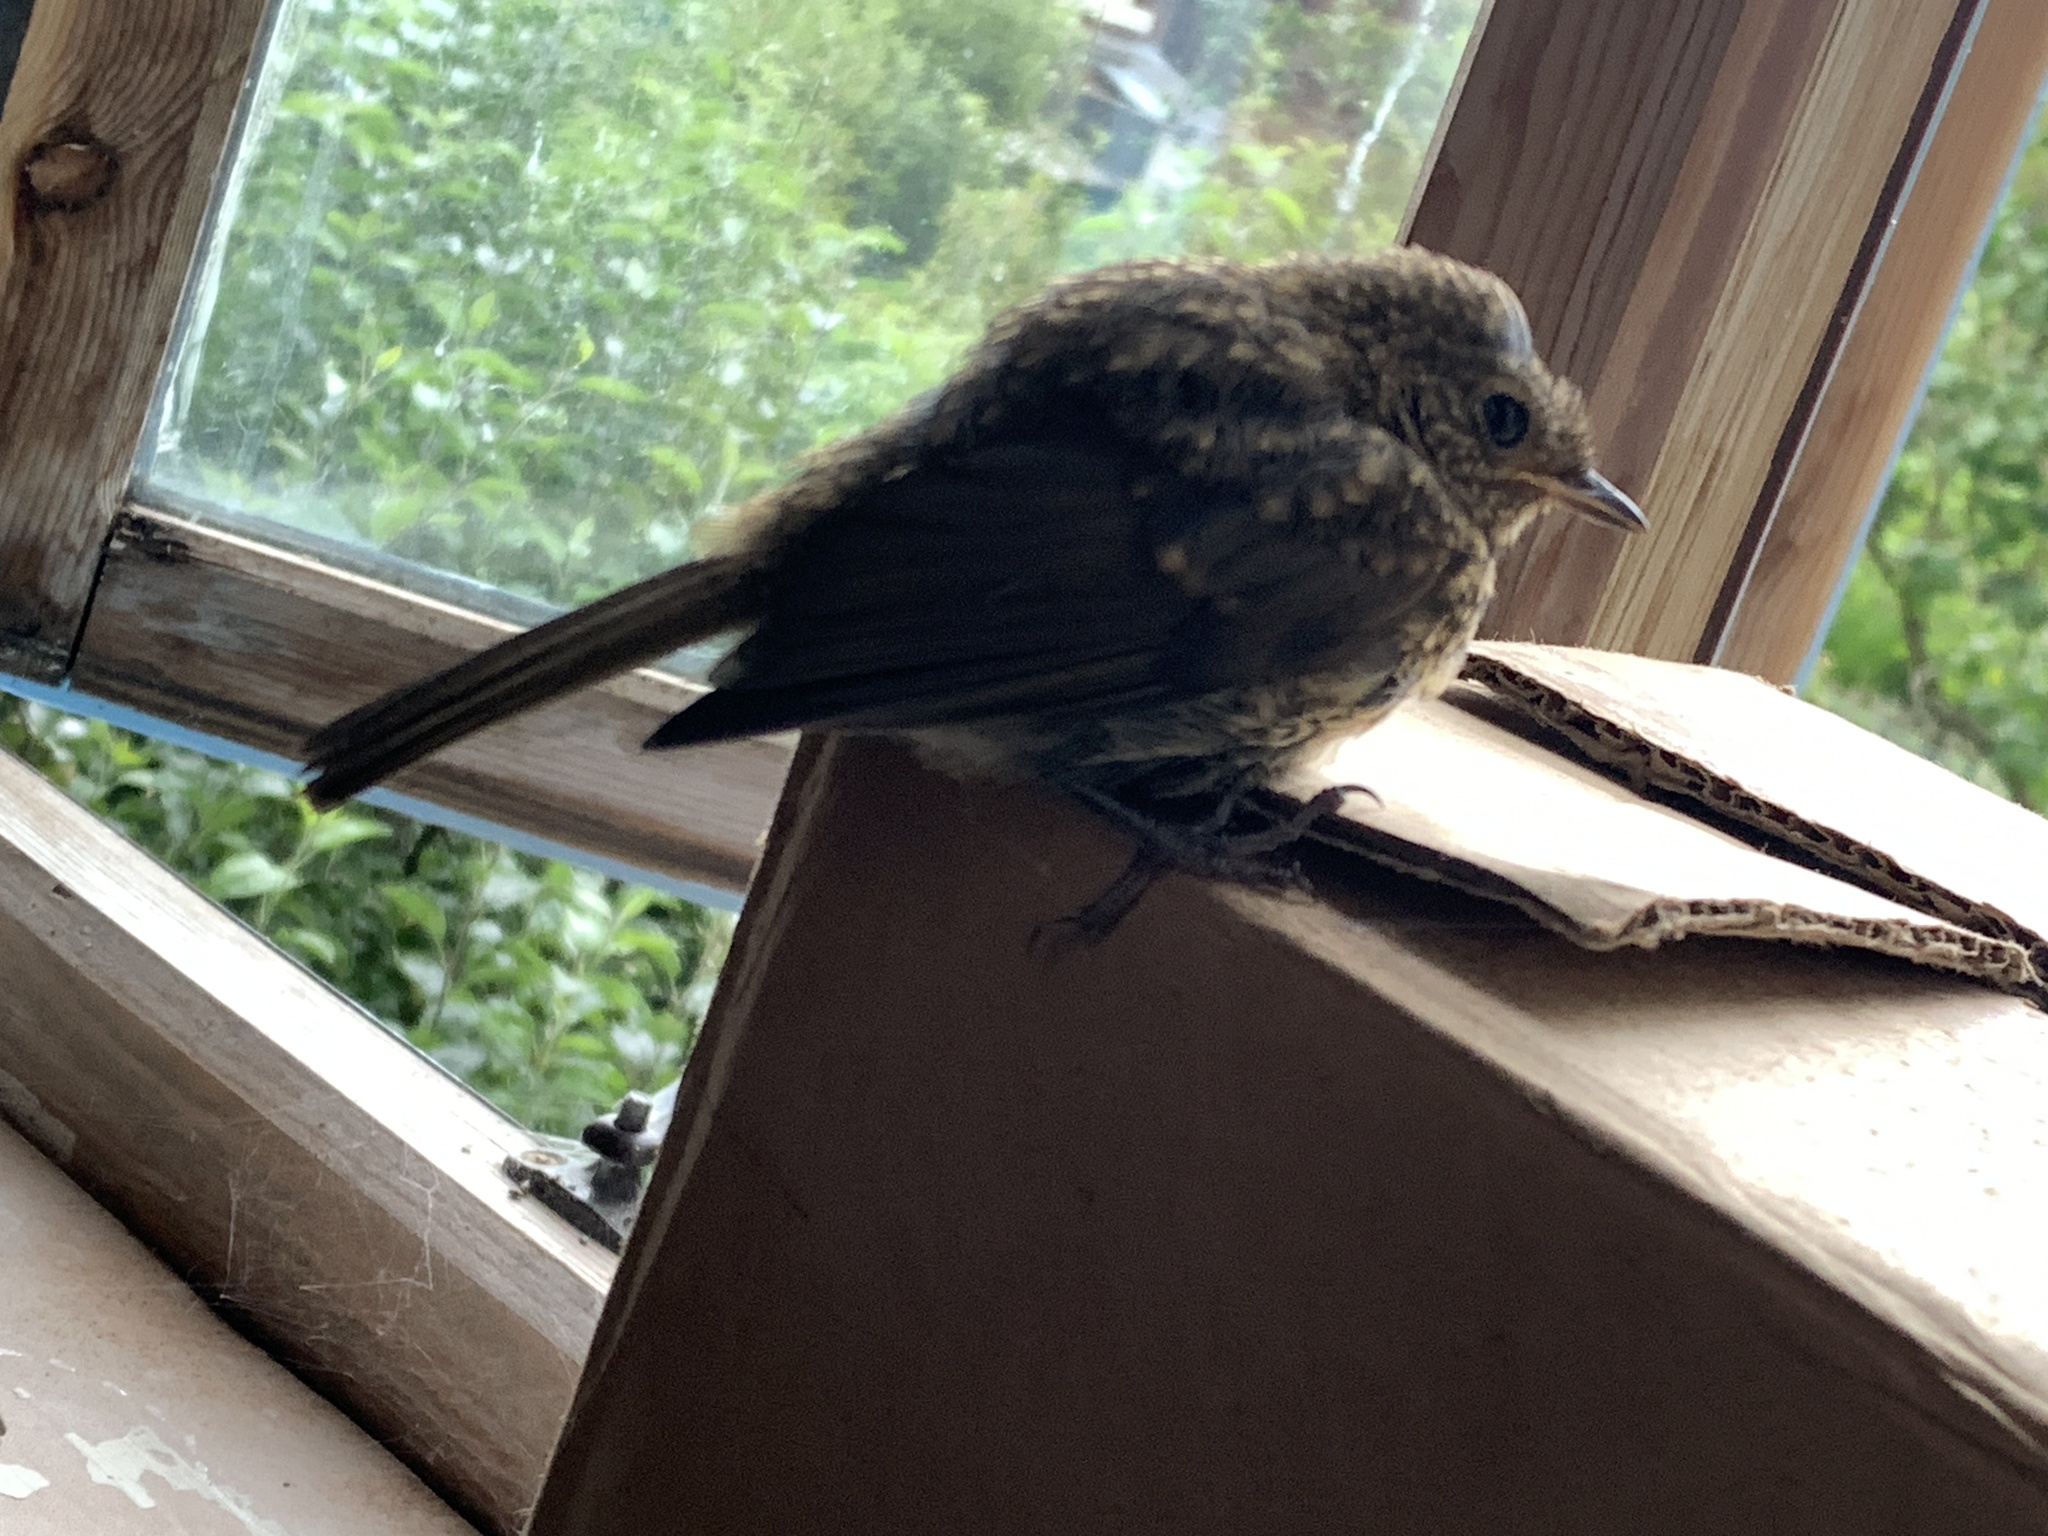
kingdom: Animalia
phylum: Chordata
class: Aves
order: Passeriformes
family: Muscicapidae
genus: Erithacus
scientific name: Erithacus rubecula
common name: European robin
